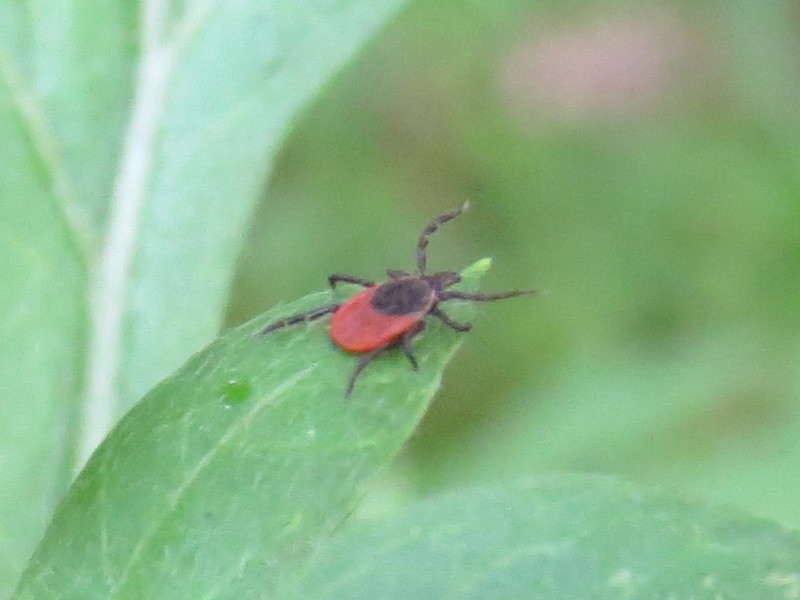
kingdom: Animalia
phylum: Arthropoda
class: Arachnida
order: Ixodida
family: Ixodidae
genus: Ixodes
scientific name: Ixodes scapularis
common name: Black legged tick
